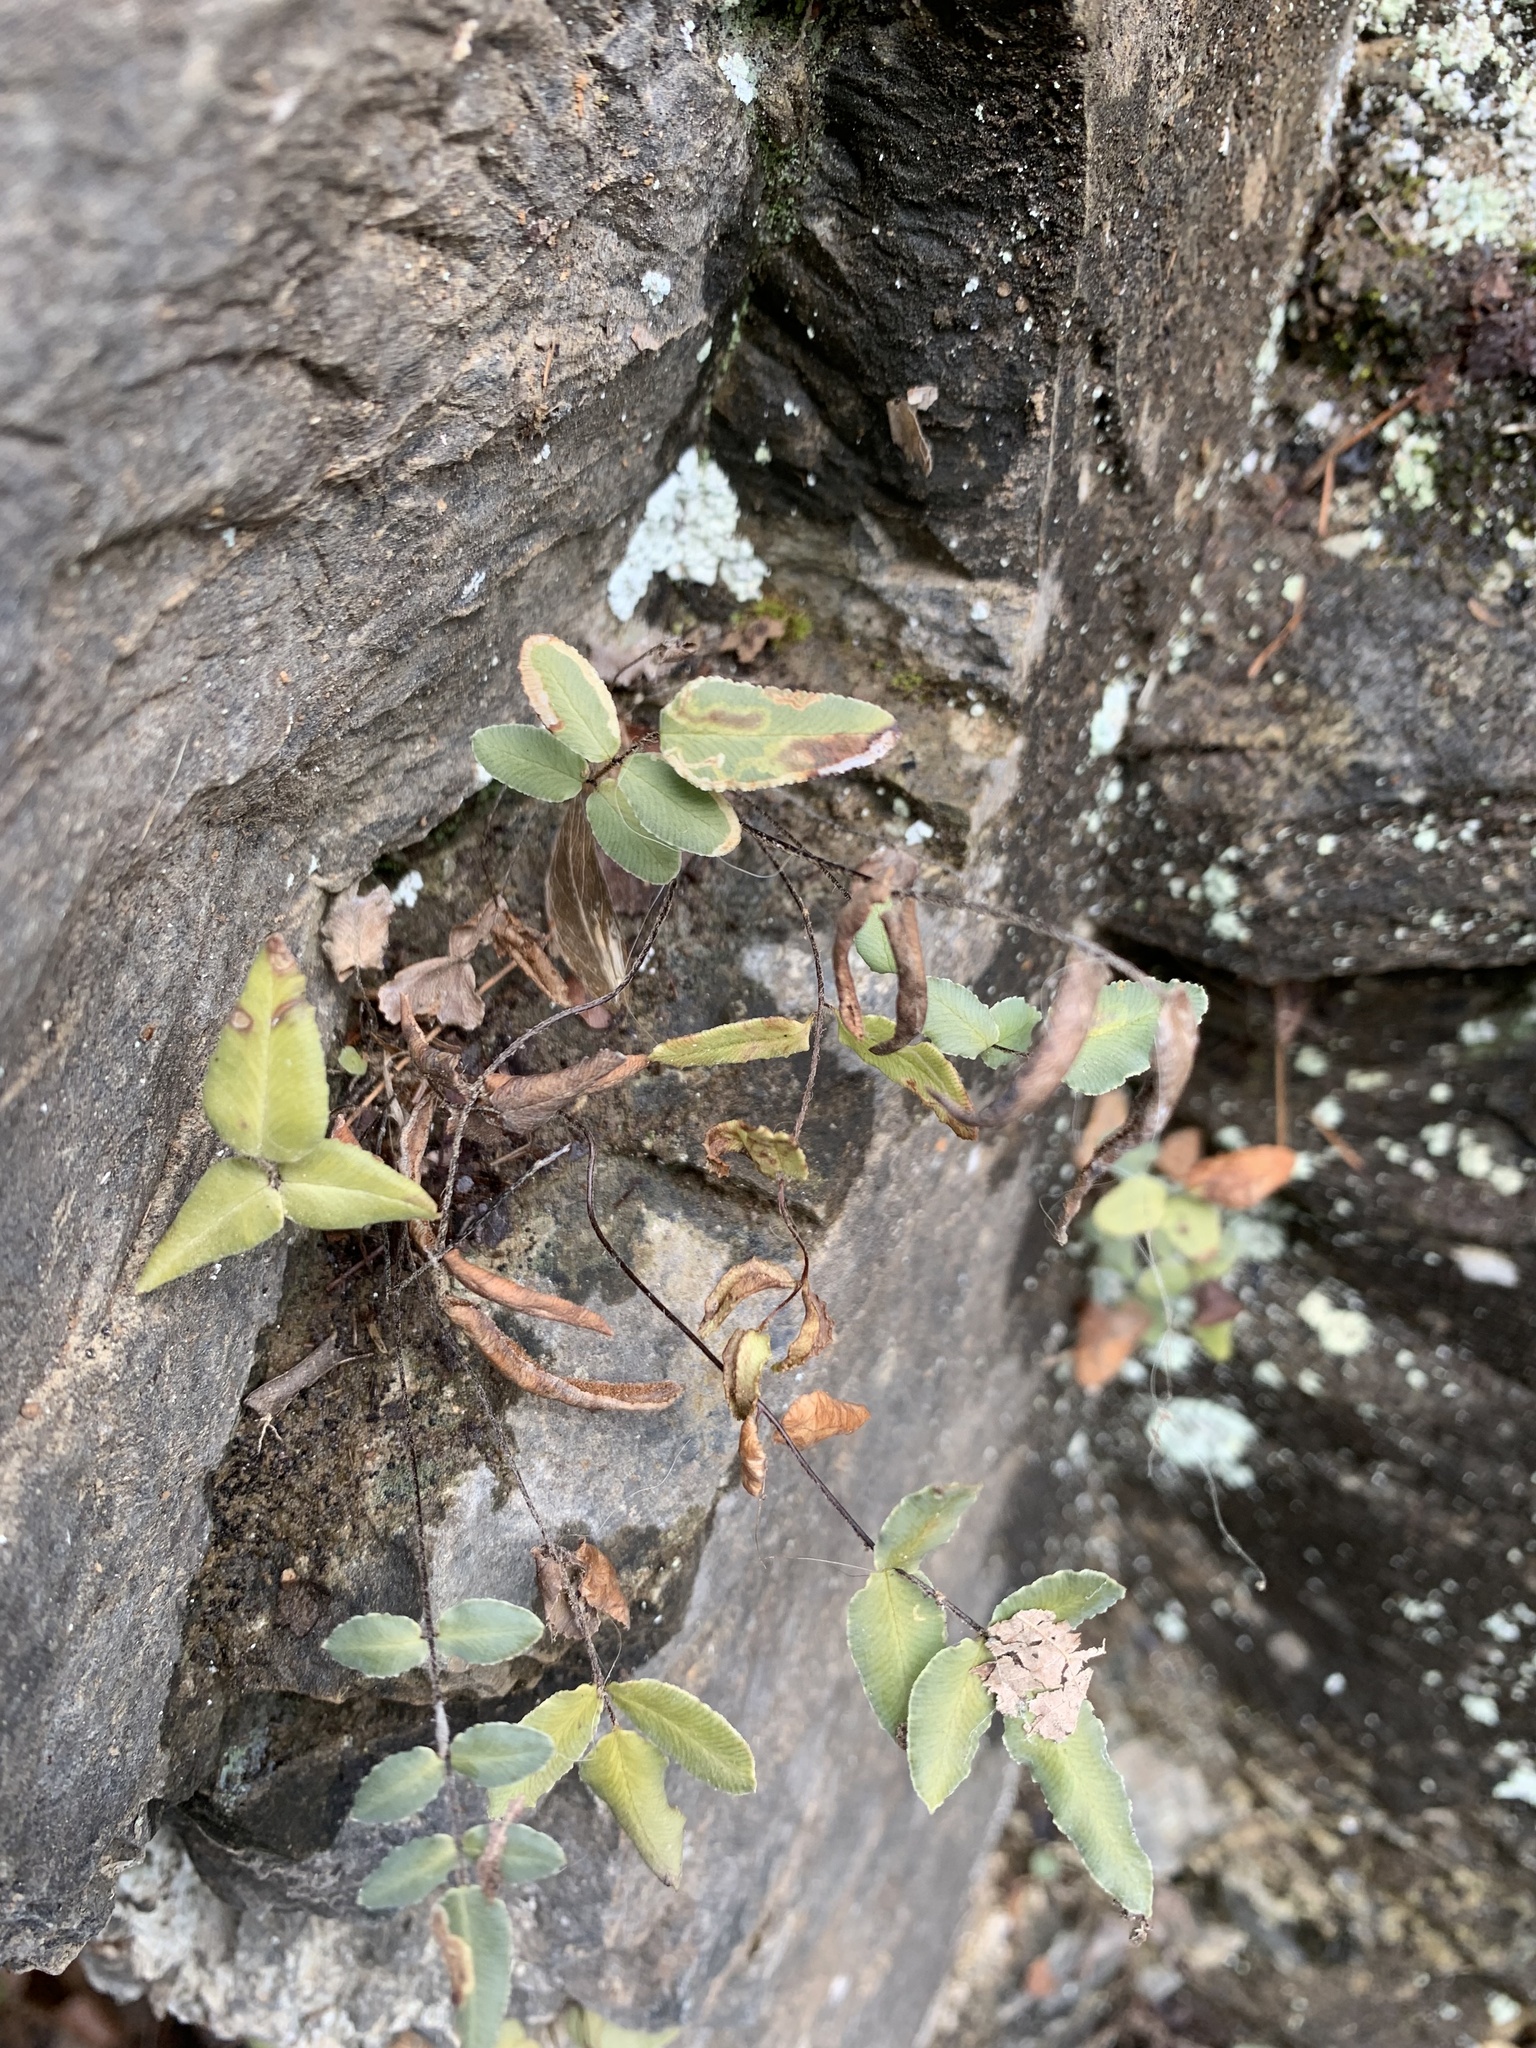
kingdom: Animalia
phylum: Arthropoda
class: Insecta
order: Diptera
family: Agromyzidae
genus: Phytoliriomyza
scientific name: Phytoliriomyza felti
